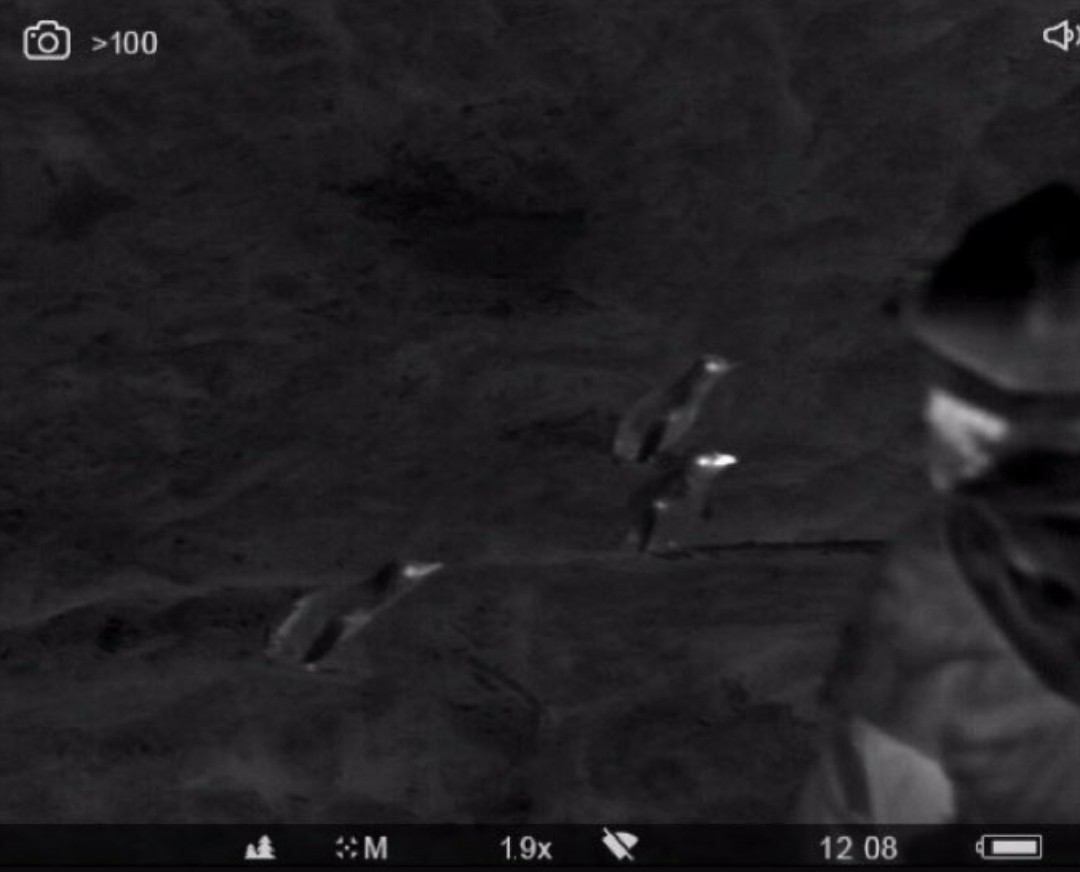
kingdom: Animalia
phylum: Chordata
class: Aves
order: Sphenisciformes
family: Spheniscidae
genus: Eudyptula
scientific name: Eudyptula minor
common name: Little penguin
